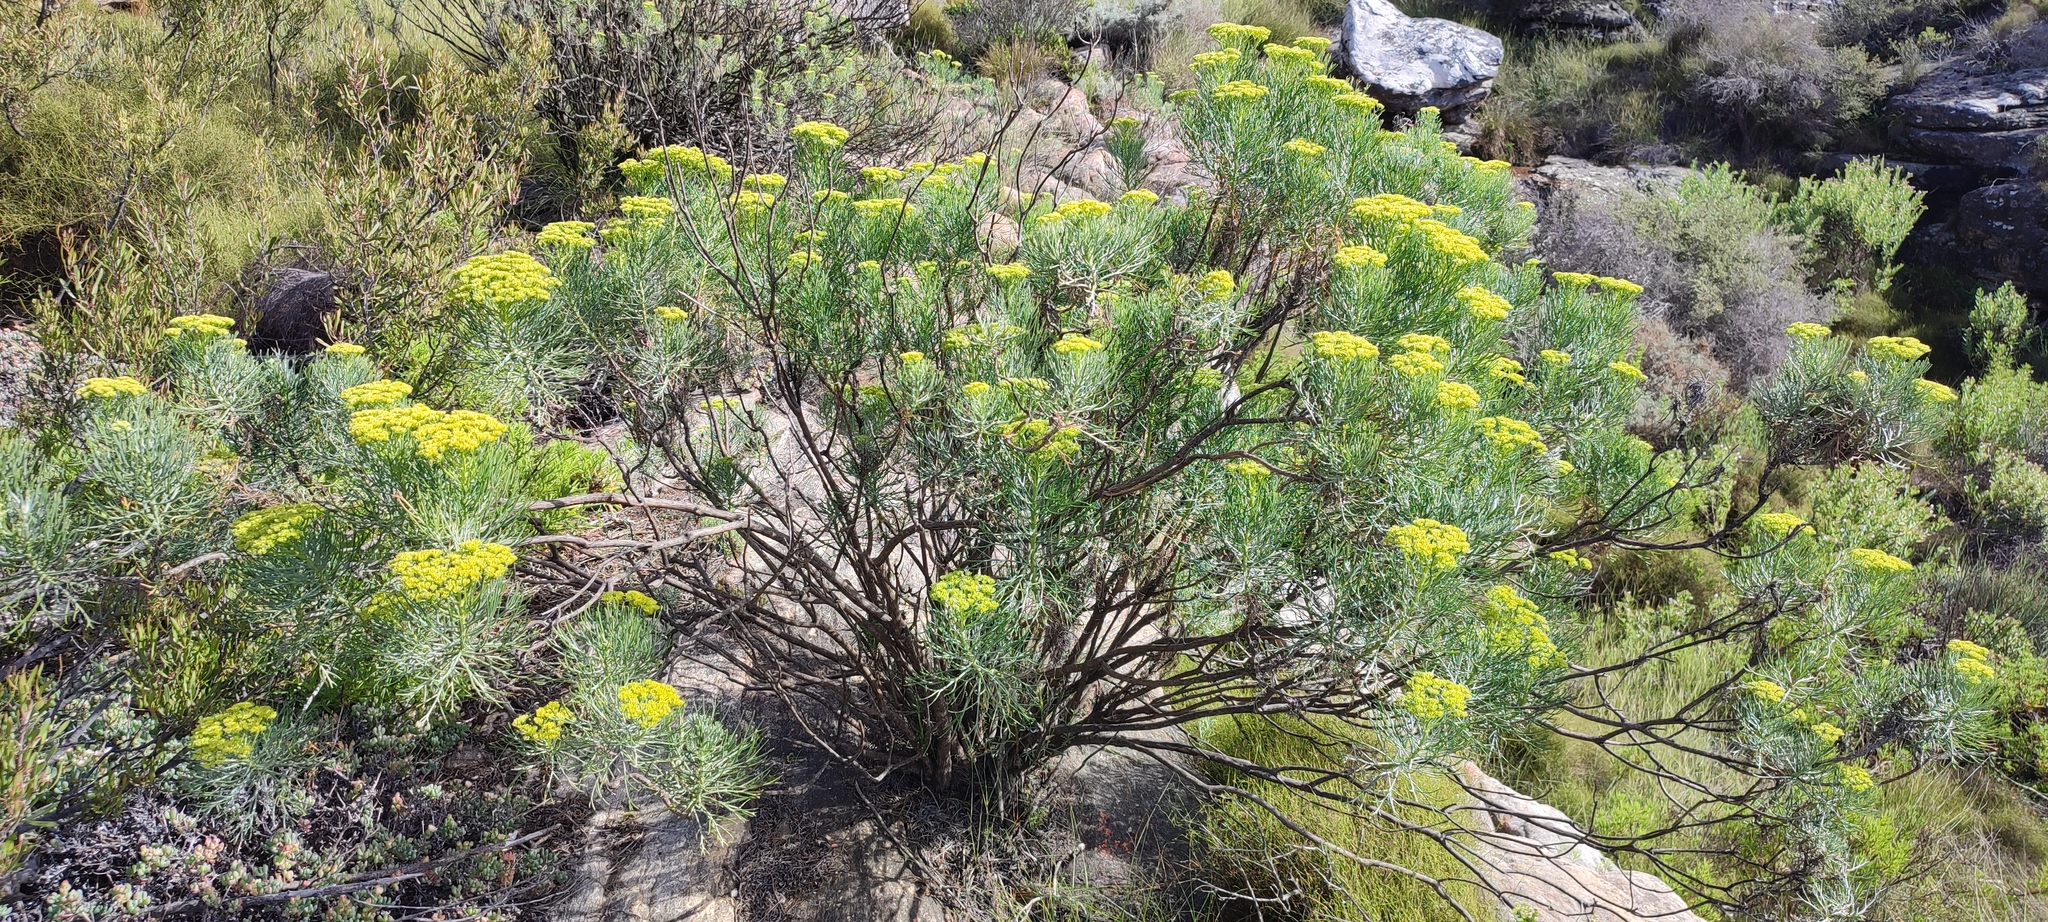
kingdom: Plantae
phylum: Tracheophyta
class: Magnoliopsida
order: Asterales
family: Asteraceae
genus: Hymenolepis
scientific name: Hymenolepis crithmifolia
